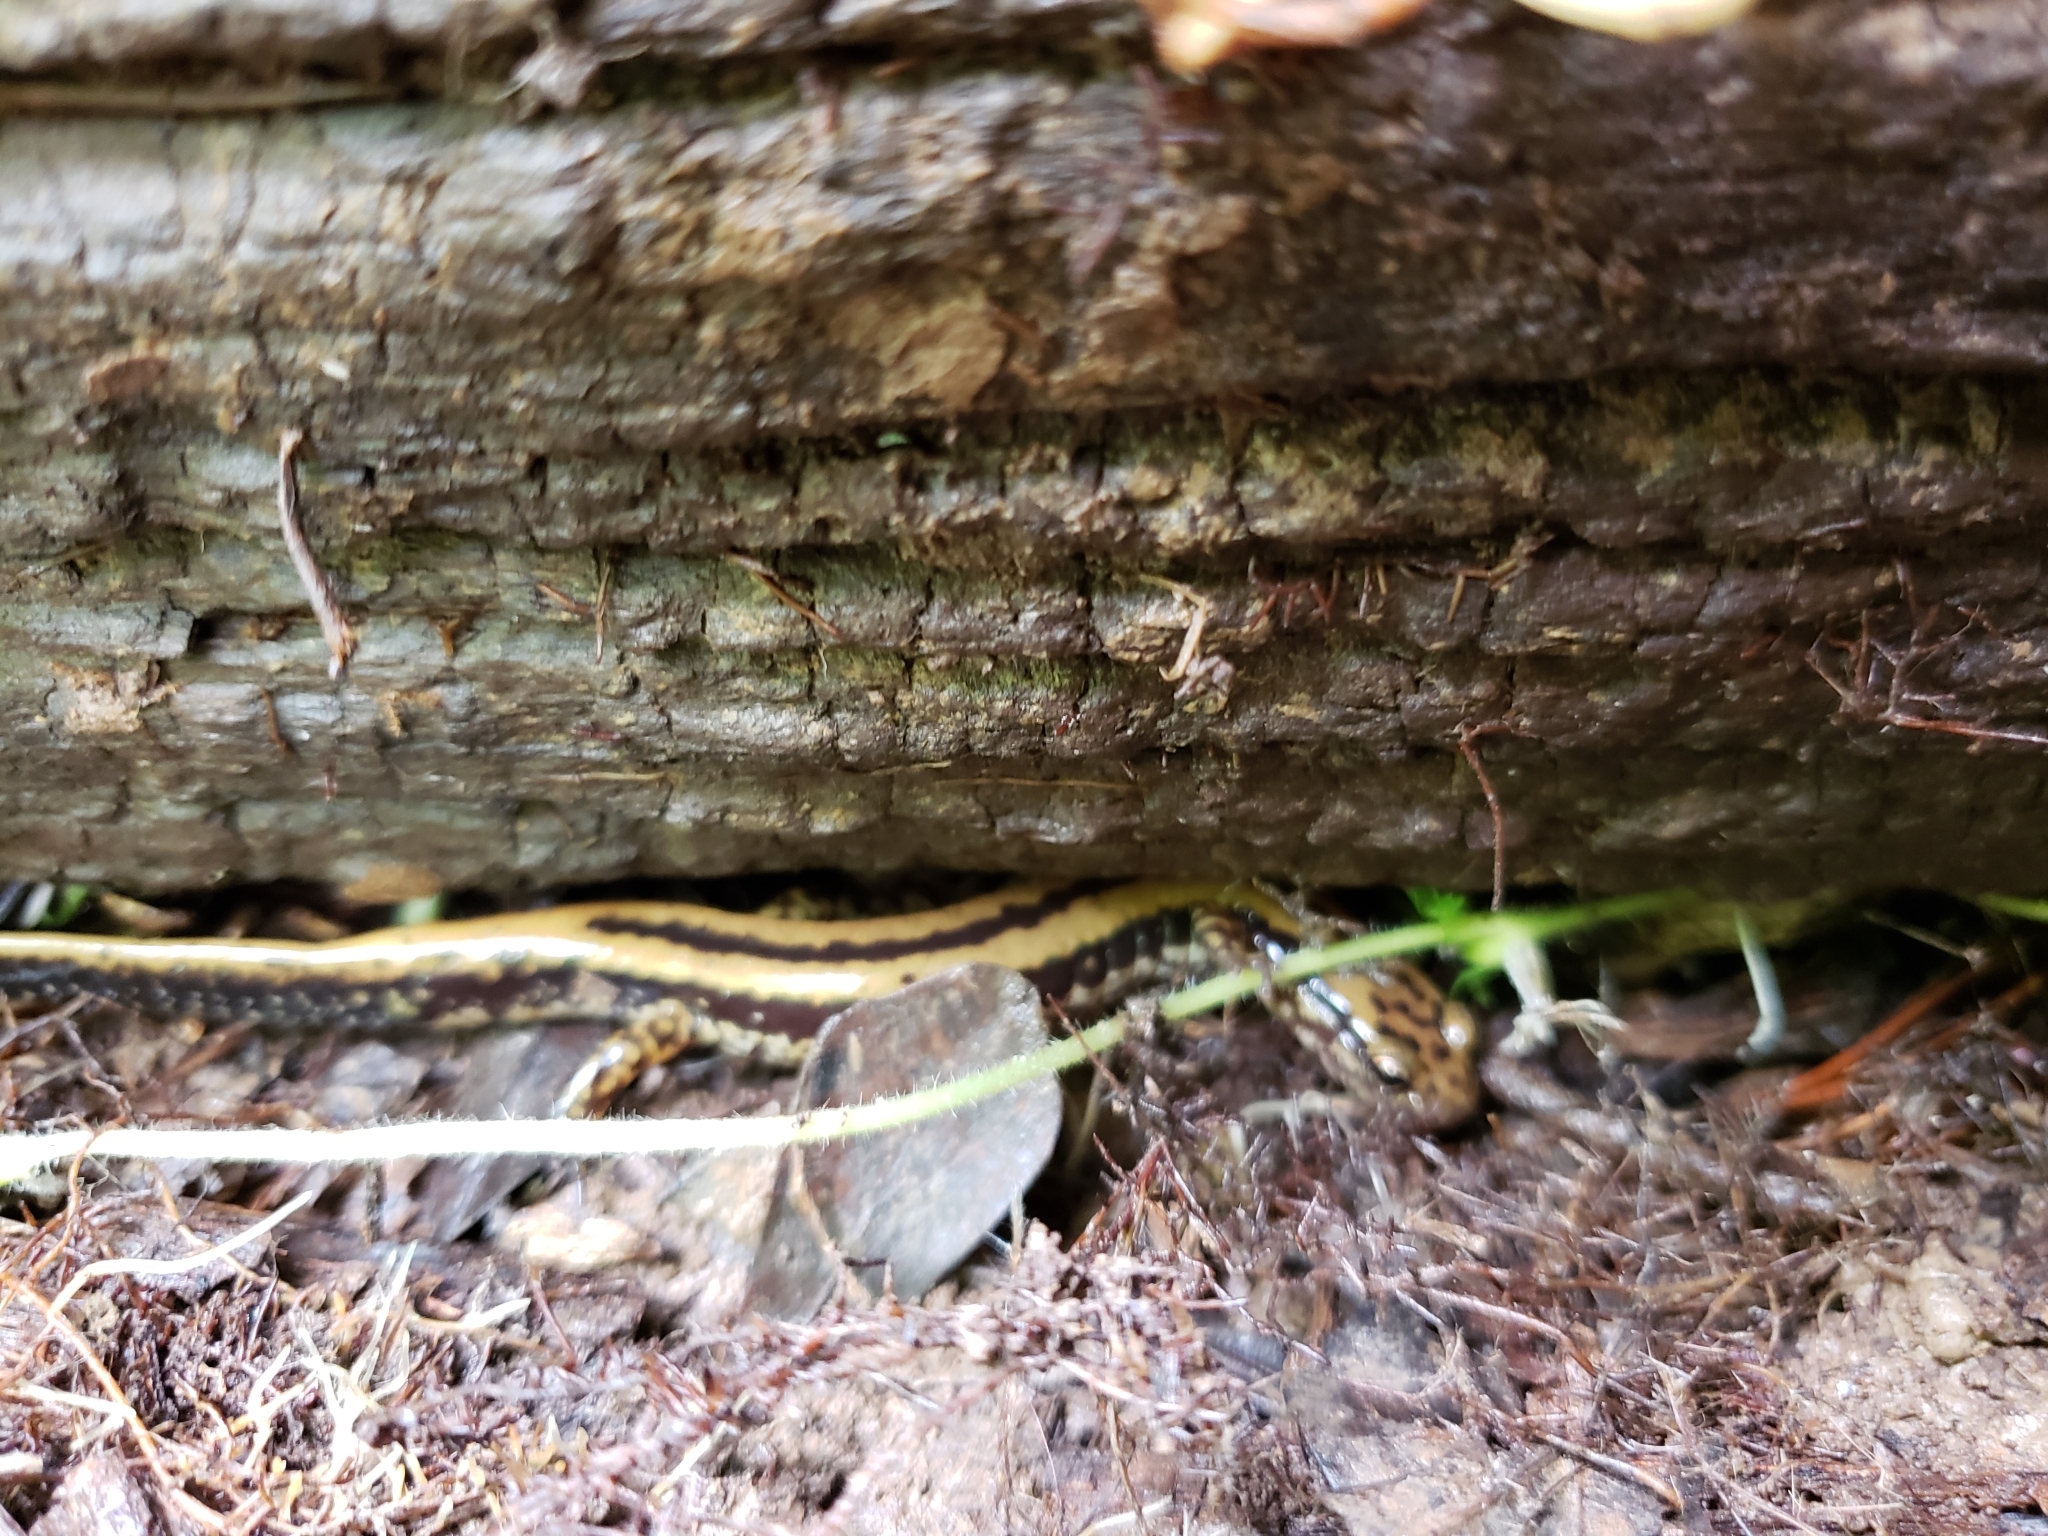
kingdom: Animalia
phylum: Chordata
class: Amphibia
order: Caudata
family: Plethodontidae
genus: Eurycea
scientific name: Eurycea guttolineata
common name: Three-lined salamander
